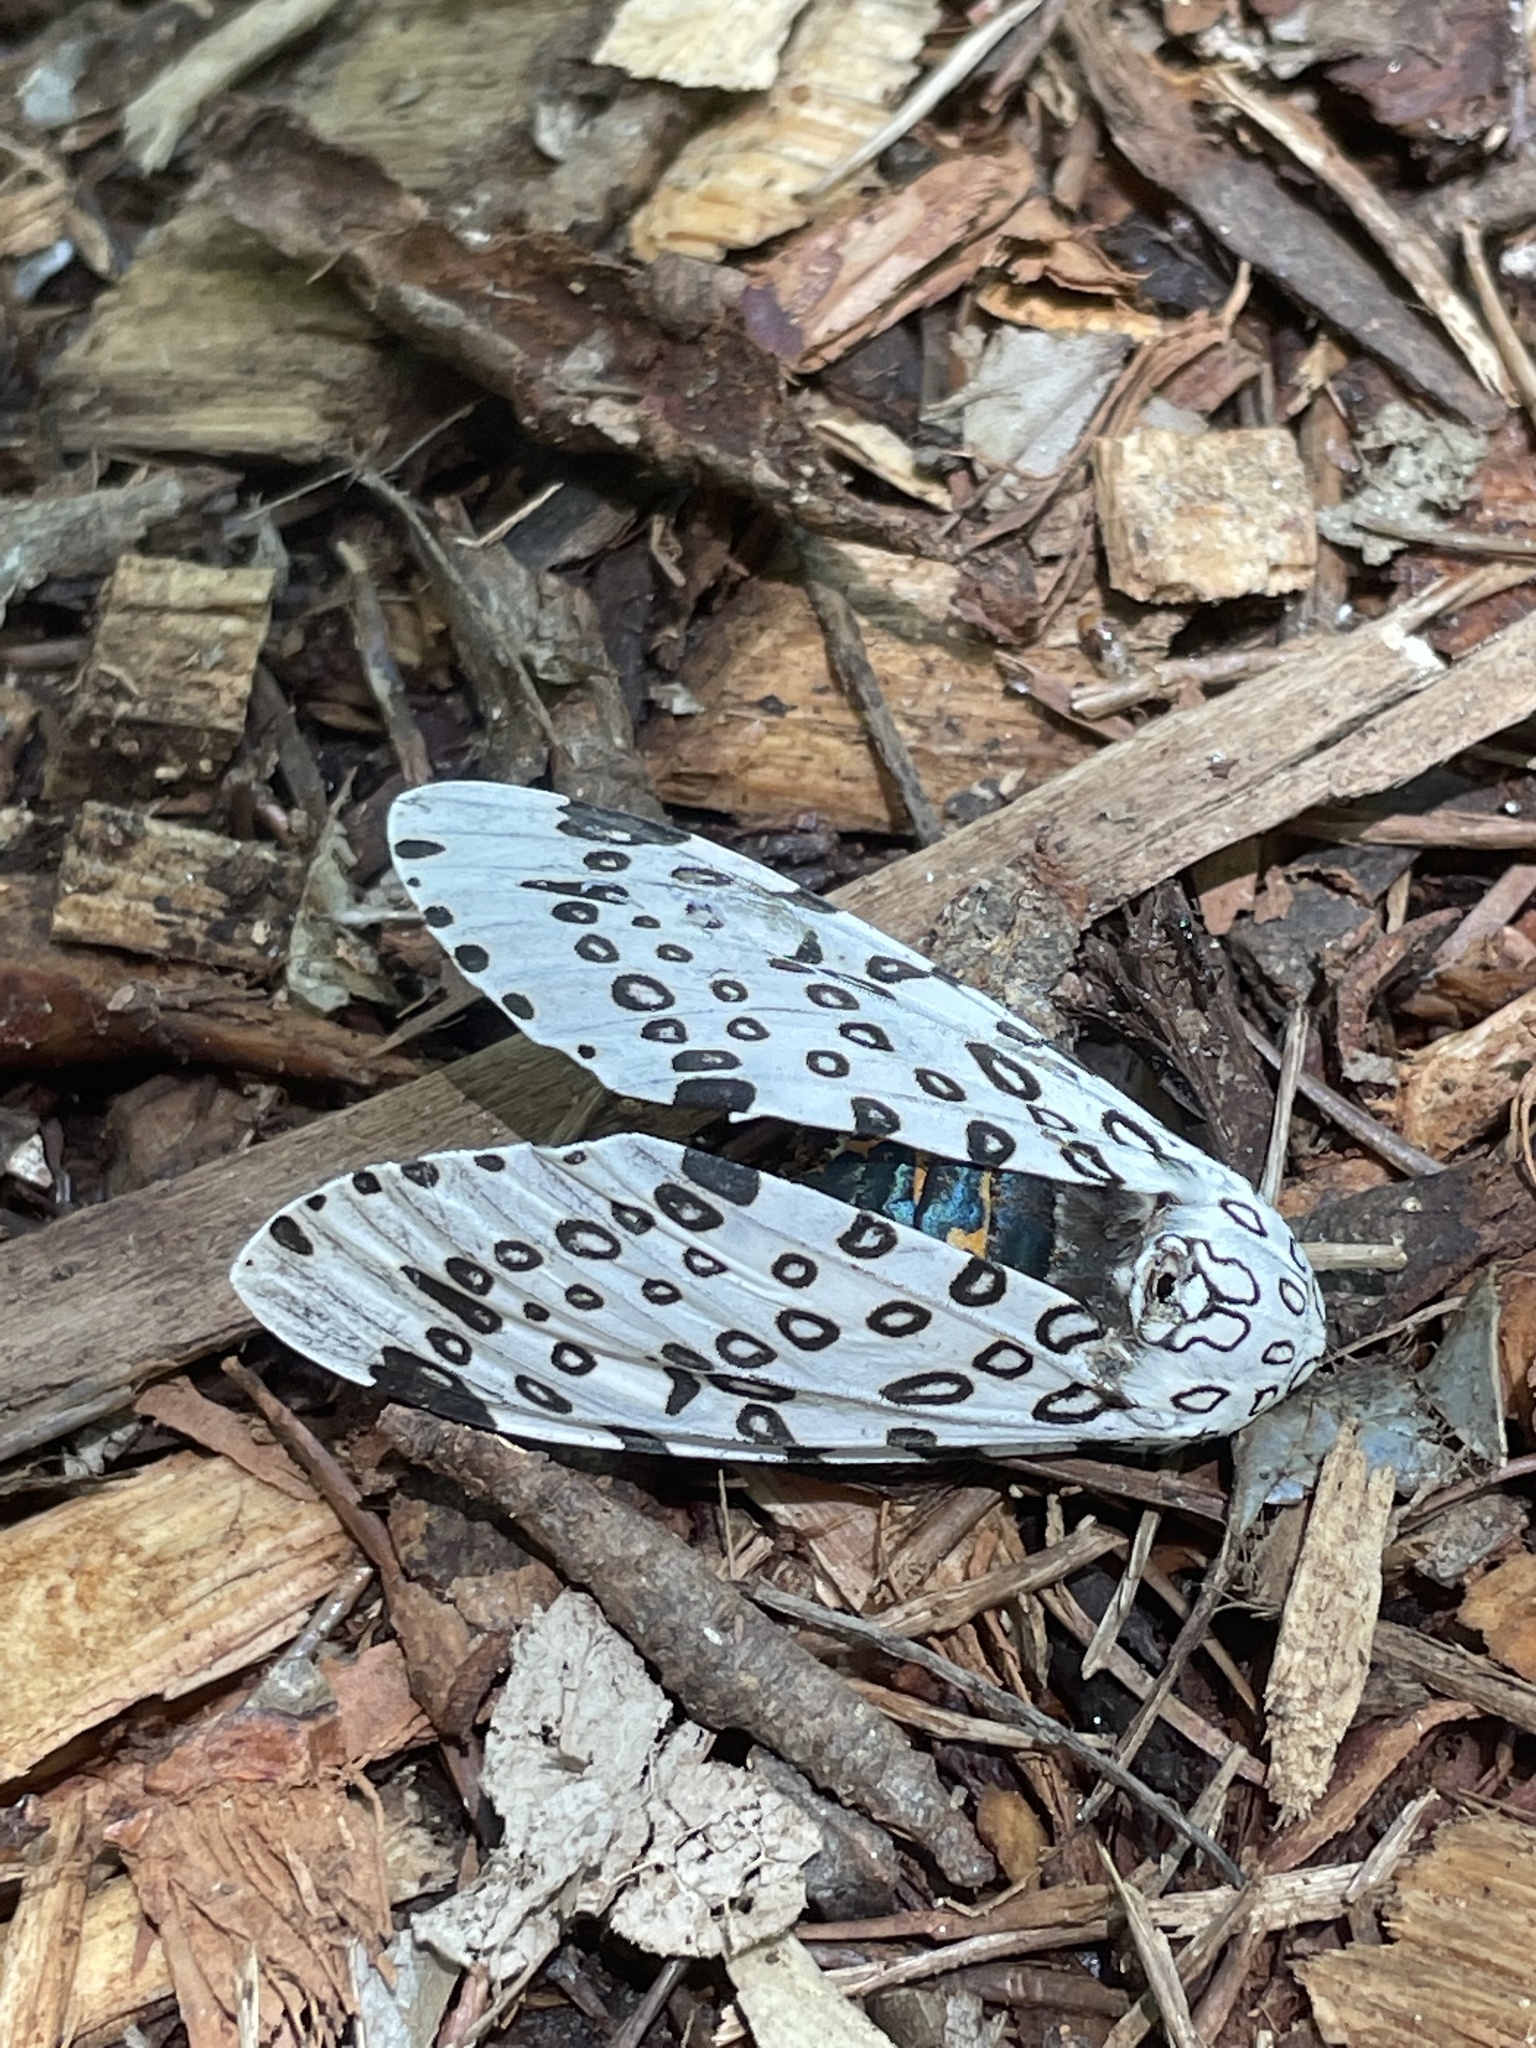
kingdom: Animalia
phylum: Arthropoda
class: Insecta
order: Lepidoptera
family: Erebidae
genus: Hypercompe
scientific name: Hypercompe scribonia
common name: Giant leopard moth
